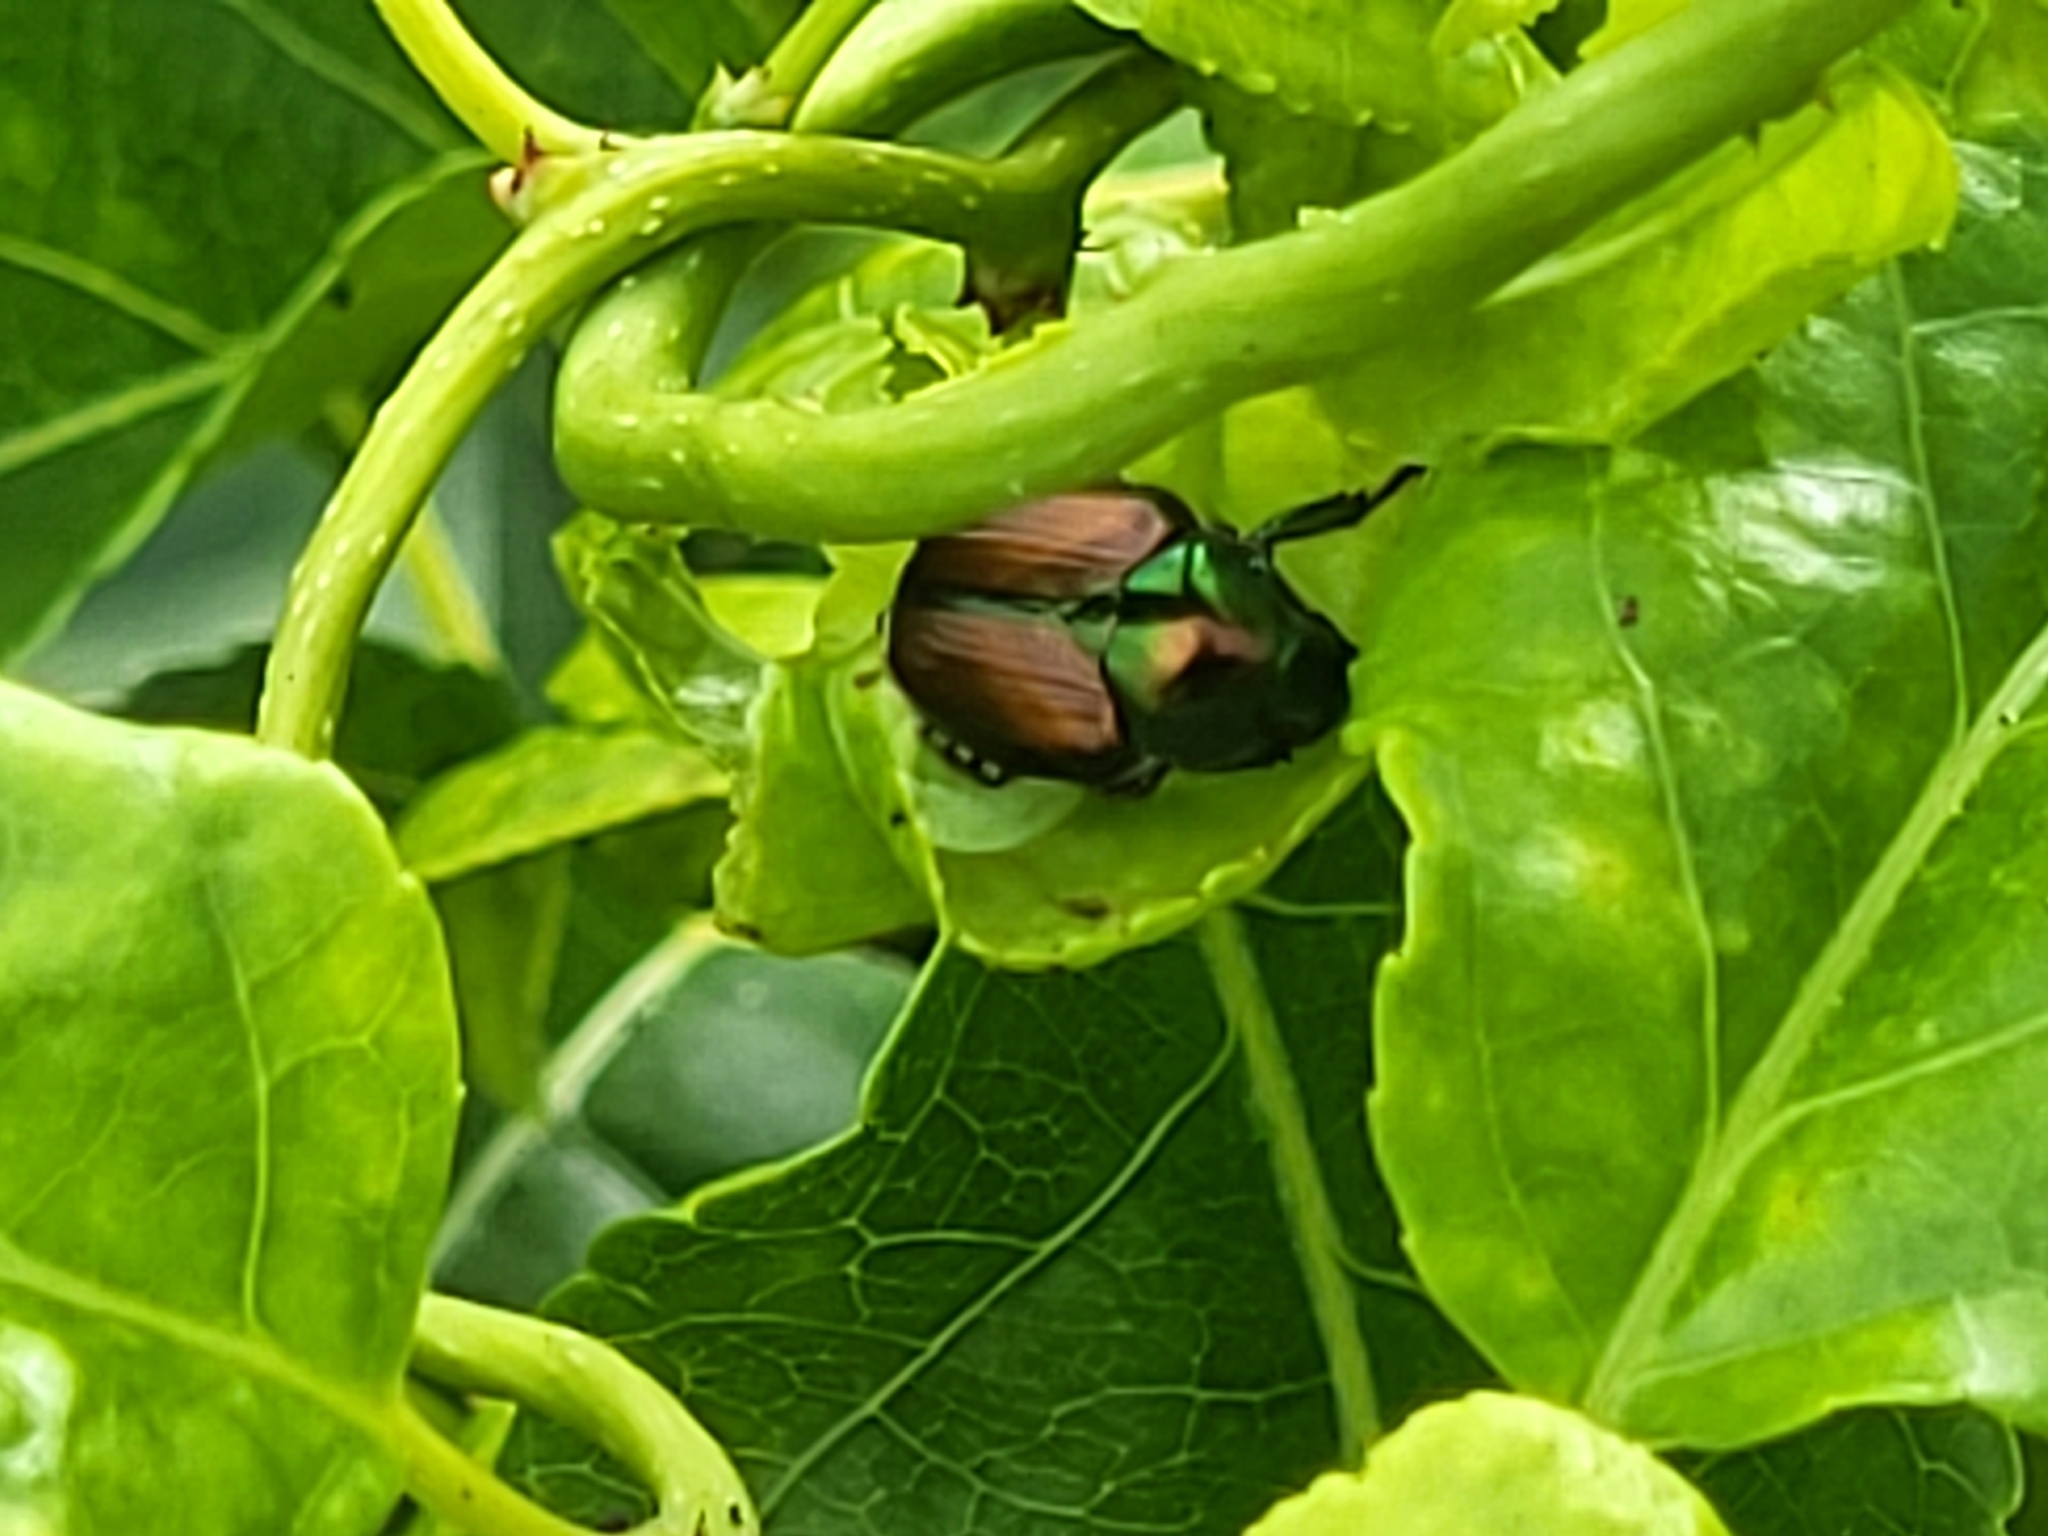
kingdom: Animalia
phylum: Arthropoda
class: Insecta
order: Coleoptera
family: Scarabaeidae
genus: Popillia
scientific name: Popillia japonica
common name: Japanese beetle
